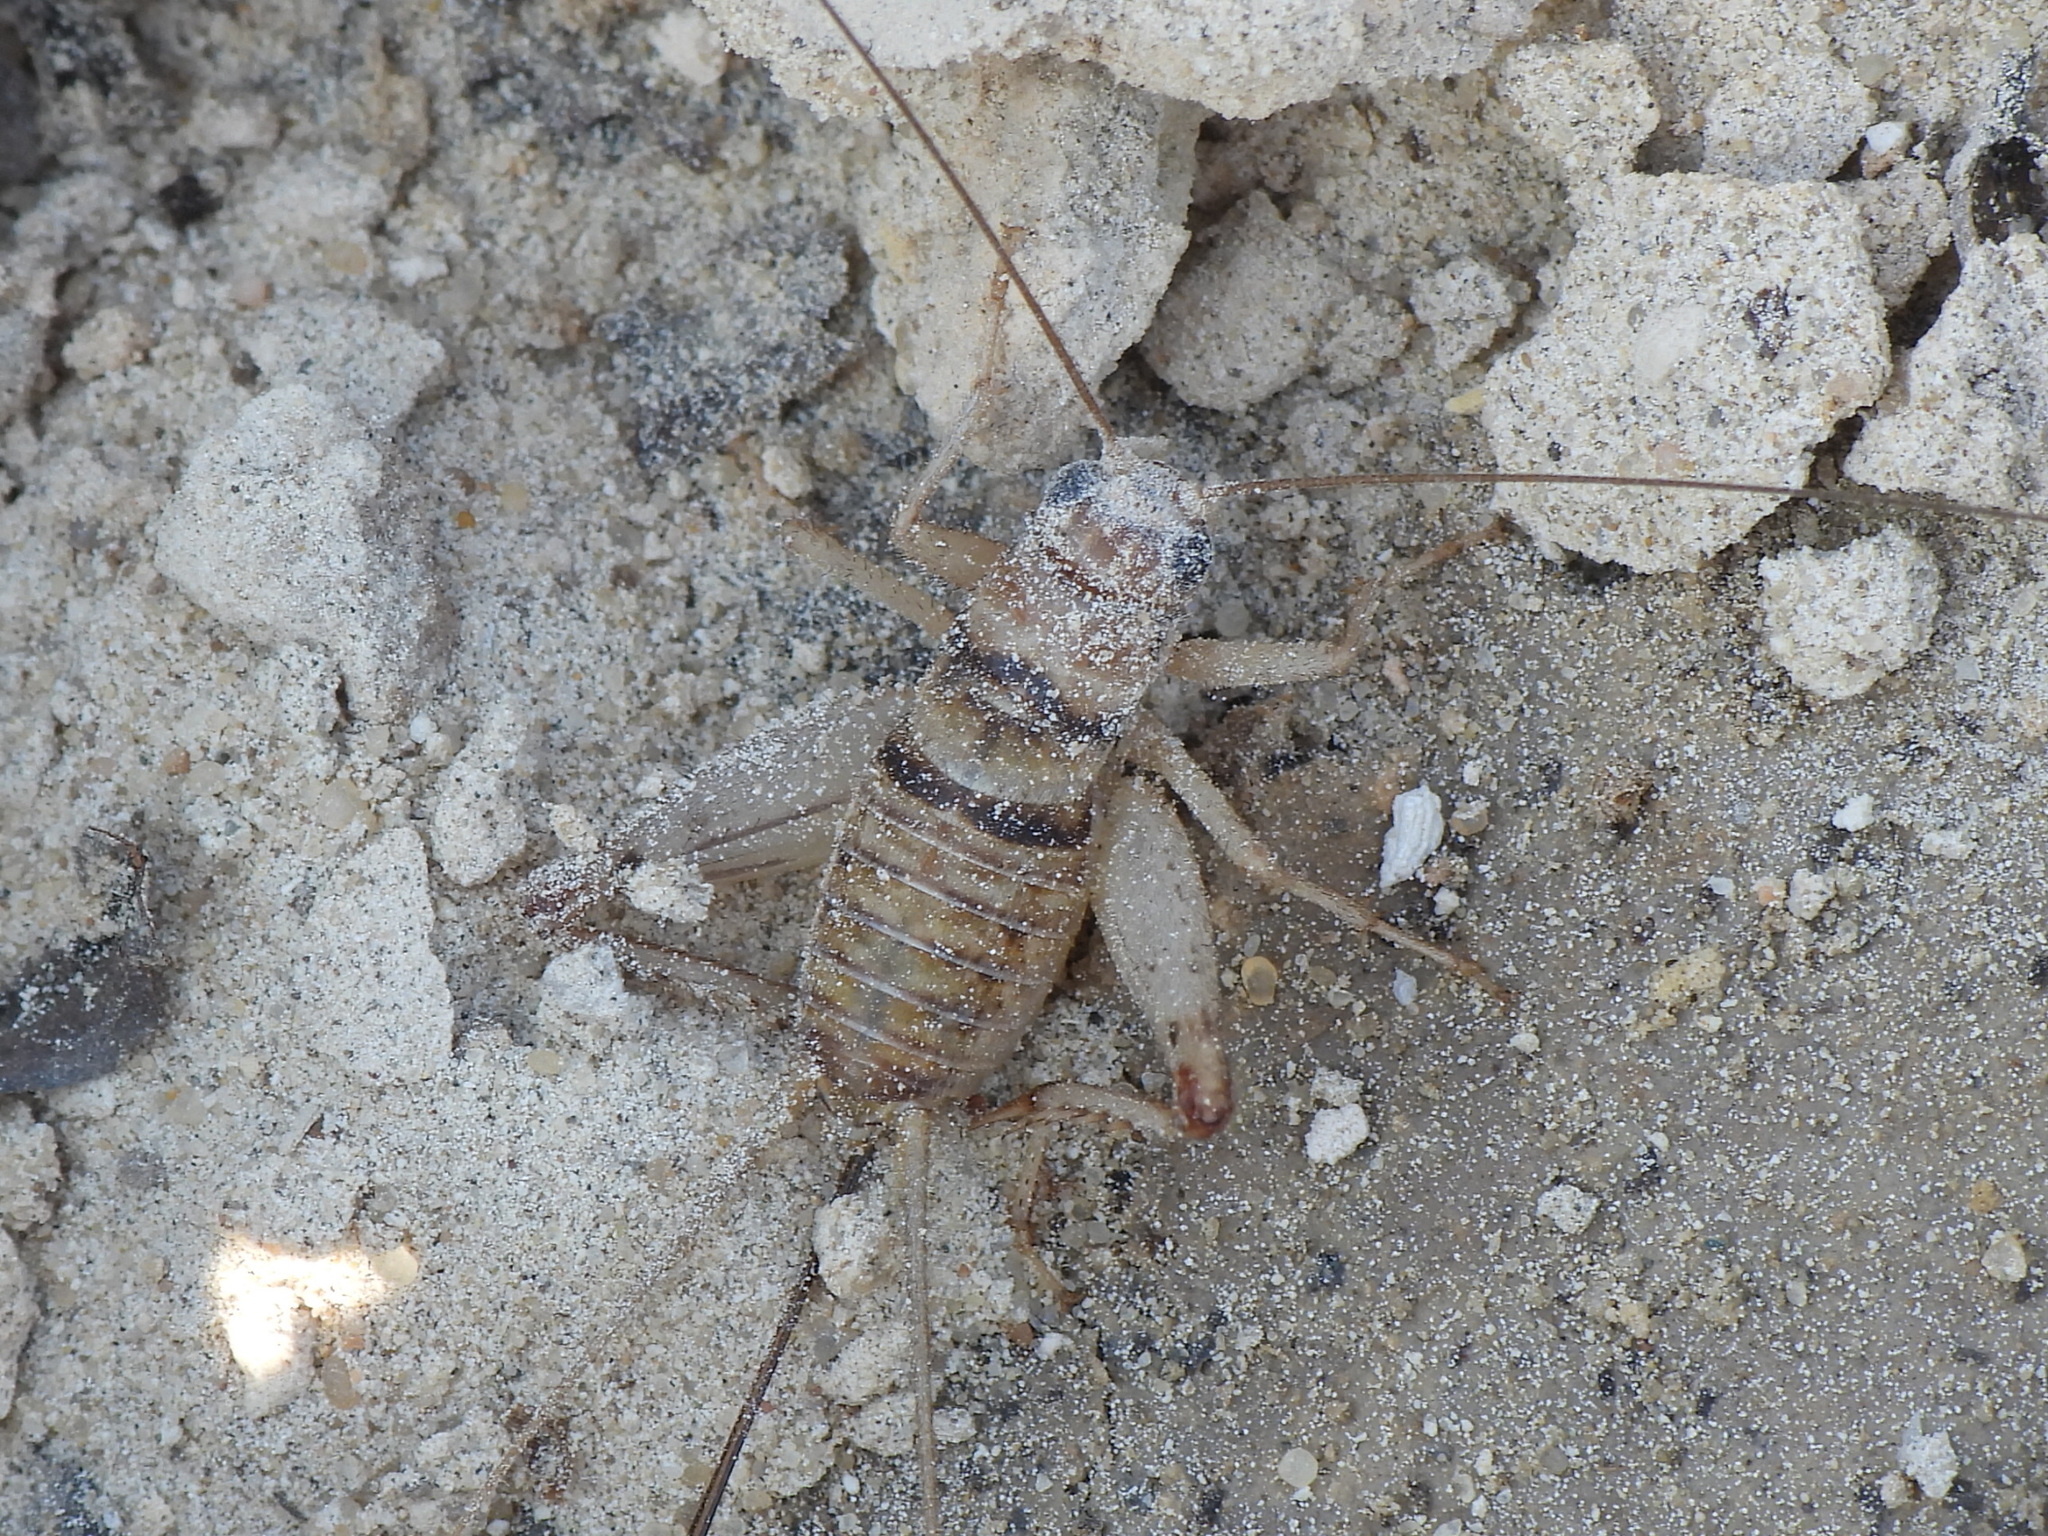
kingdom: Animalia
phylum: Arthropoda
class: Insecta
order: Orthoptera
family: Gryllidae
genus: Gryllodes
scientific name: Gryllodes sigillatus
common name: Tropical house cricket
